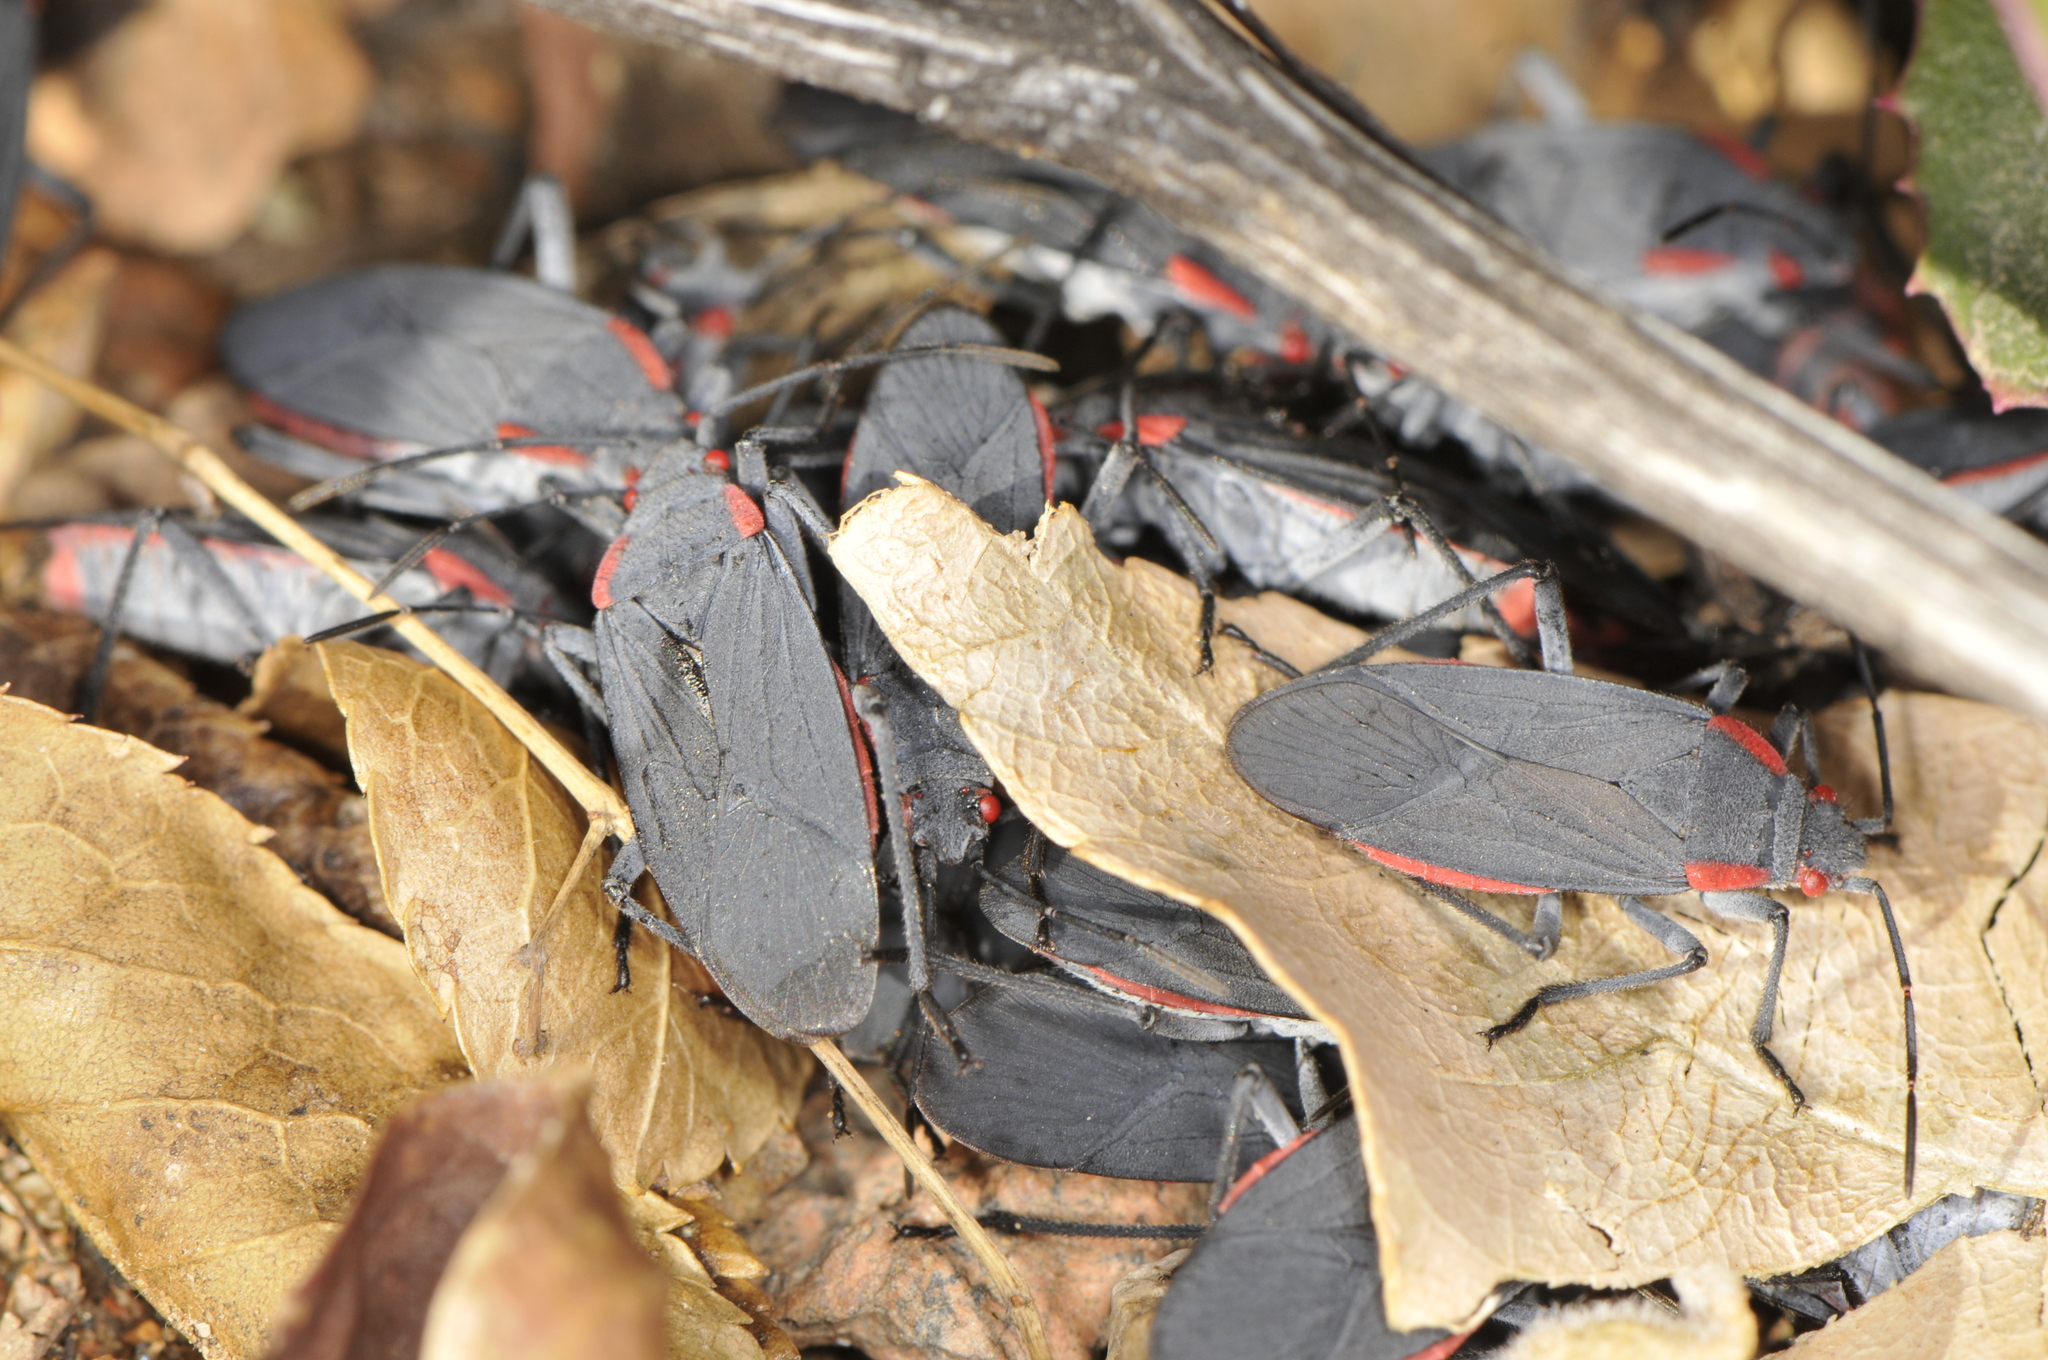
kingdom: Animalia
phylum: Arthropoda
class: Insecta
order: Hemiptera
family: Rhopalidae
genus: Jadera
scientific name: Jadera haematoloma
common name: Red-shouldered bug
